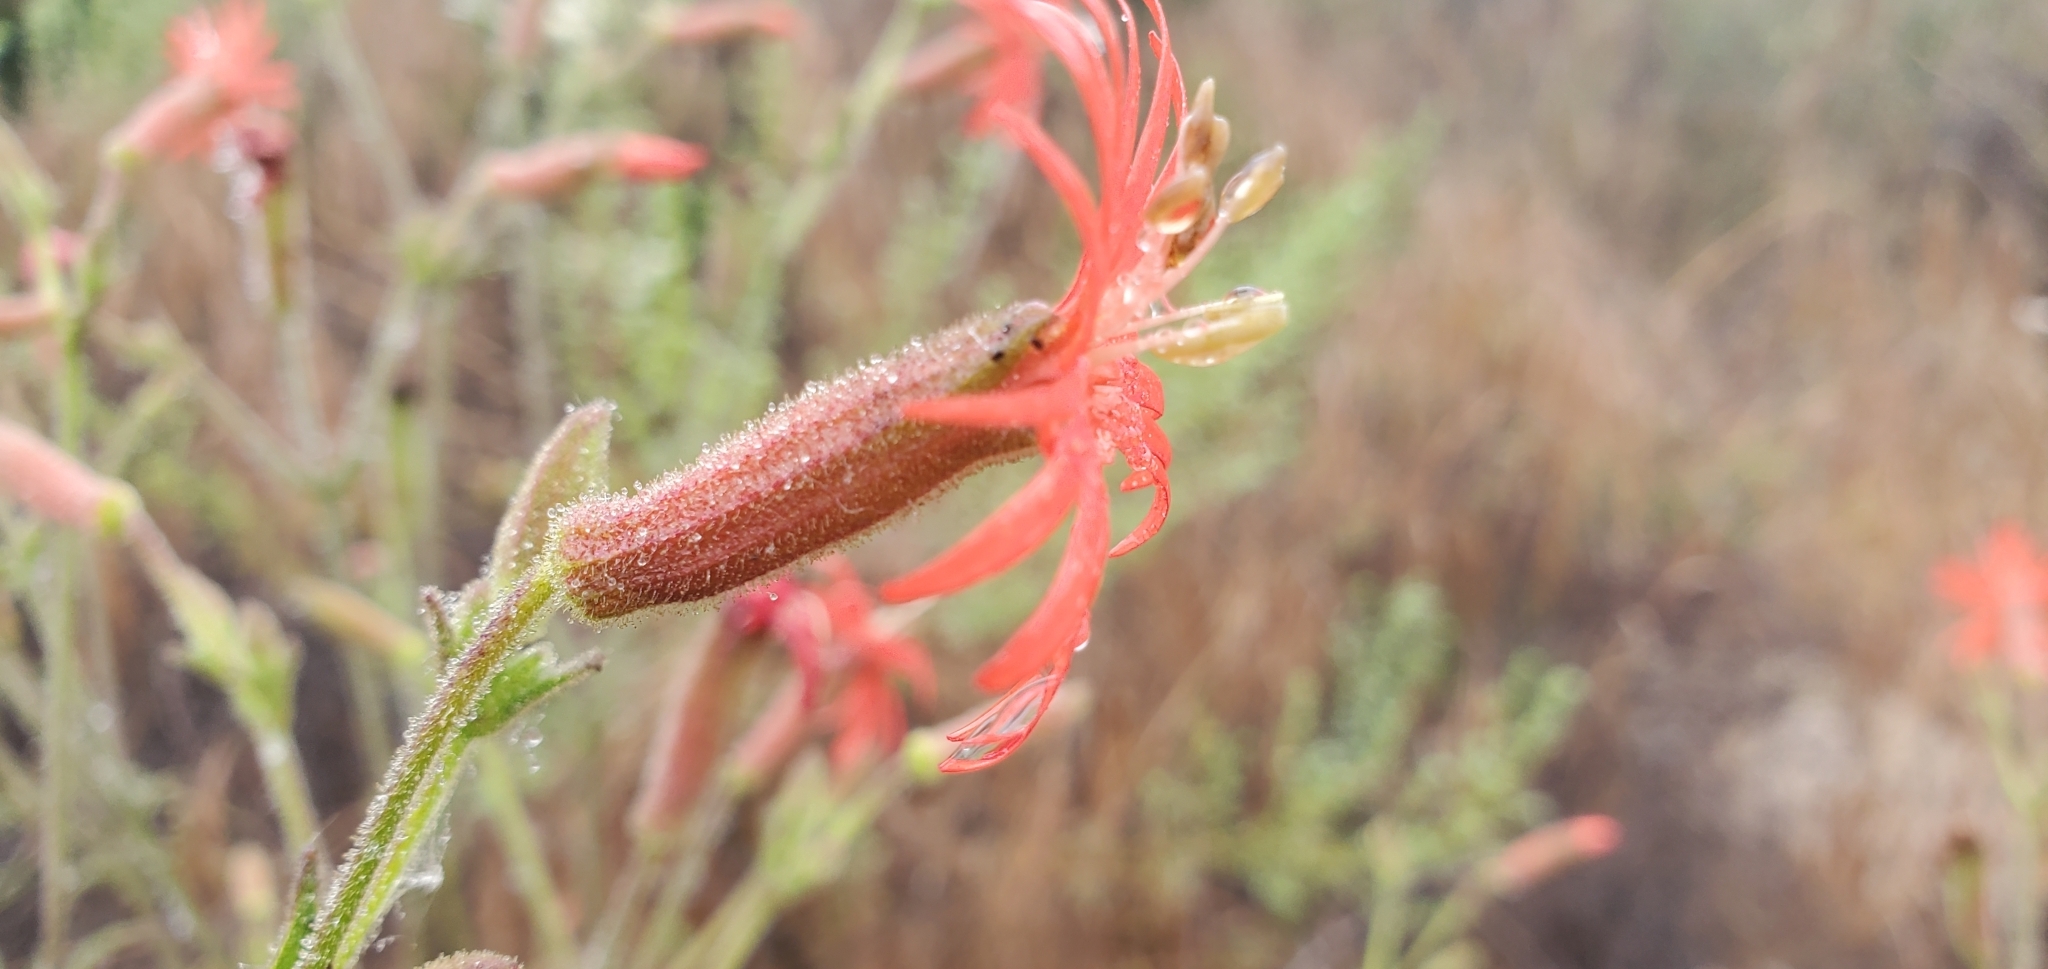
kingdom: Plantae
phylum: Tracheophyta
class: Magnoliopsida
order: Caryophyllales
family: Caryophyllaceae
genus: Silene
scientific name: Silene laciniata
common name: Indian-pink
